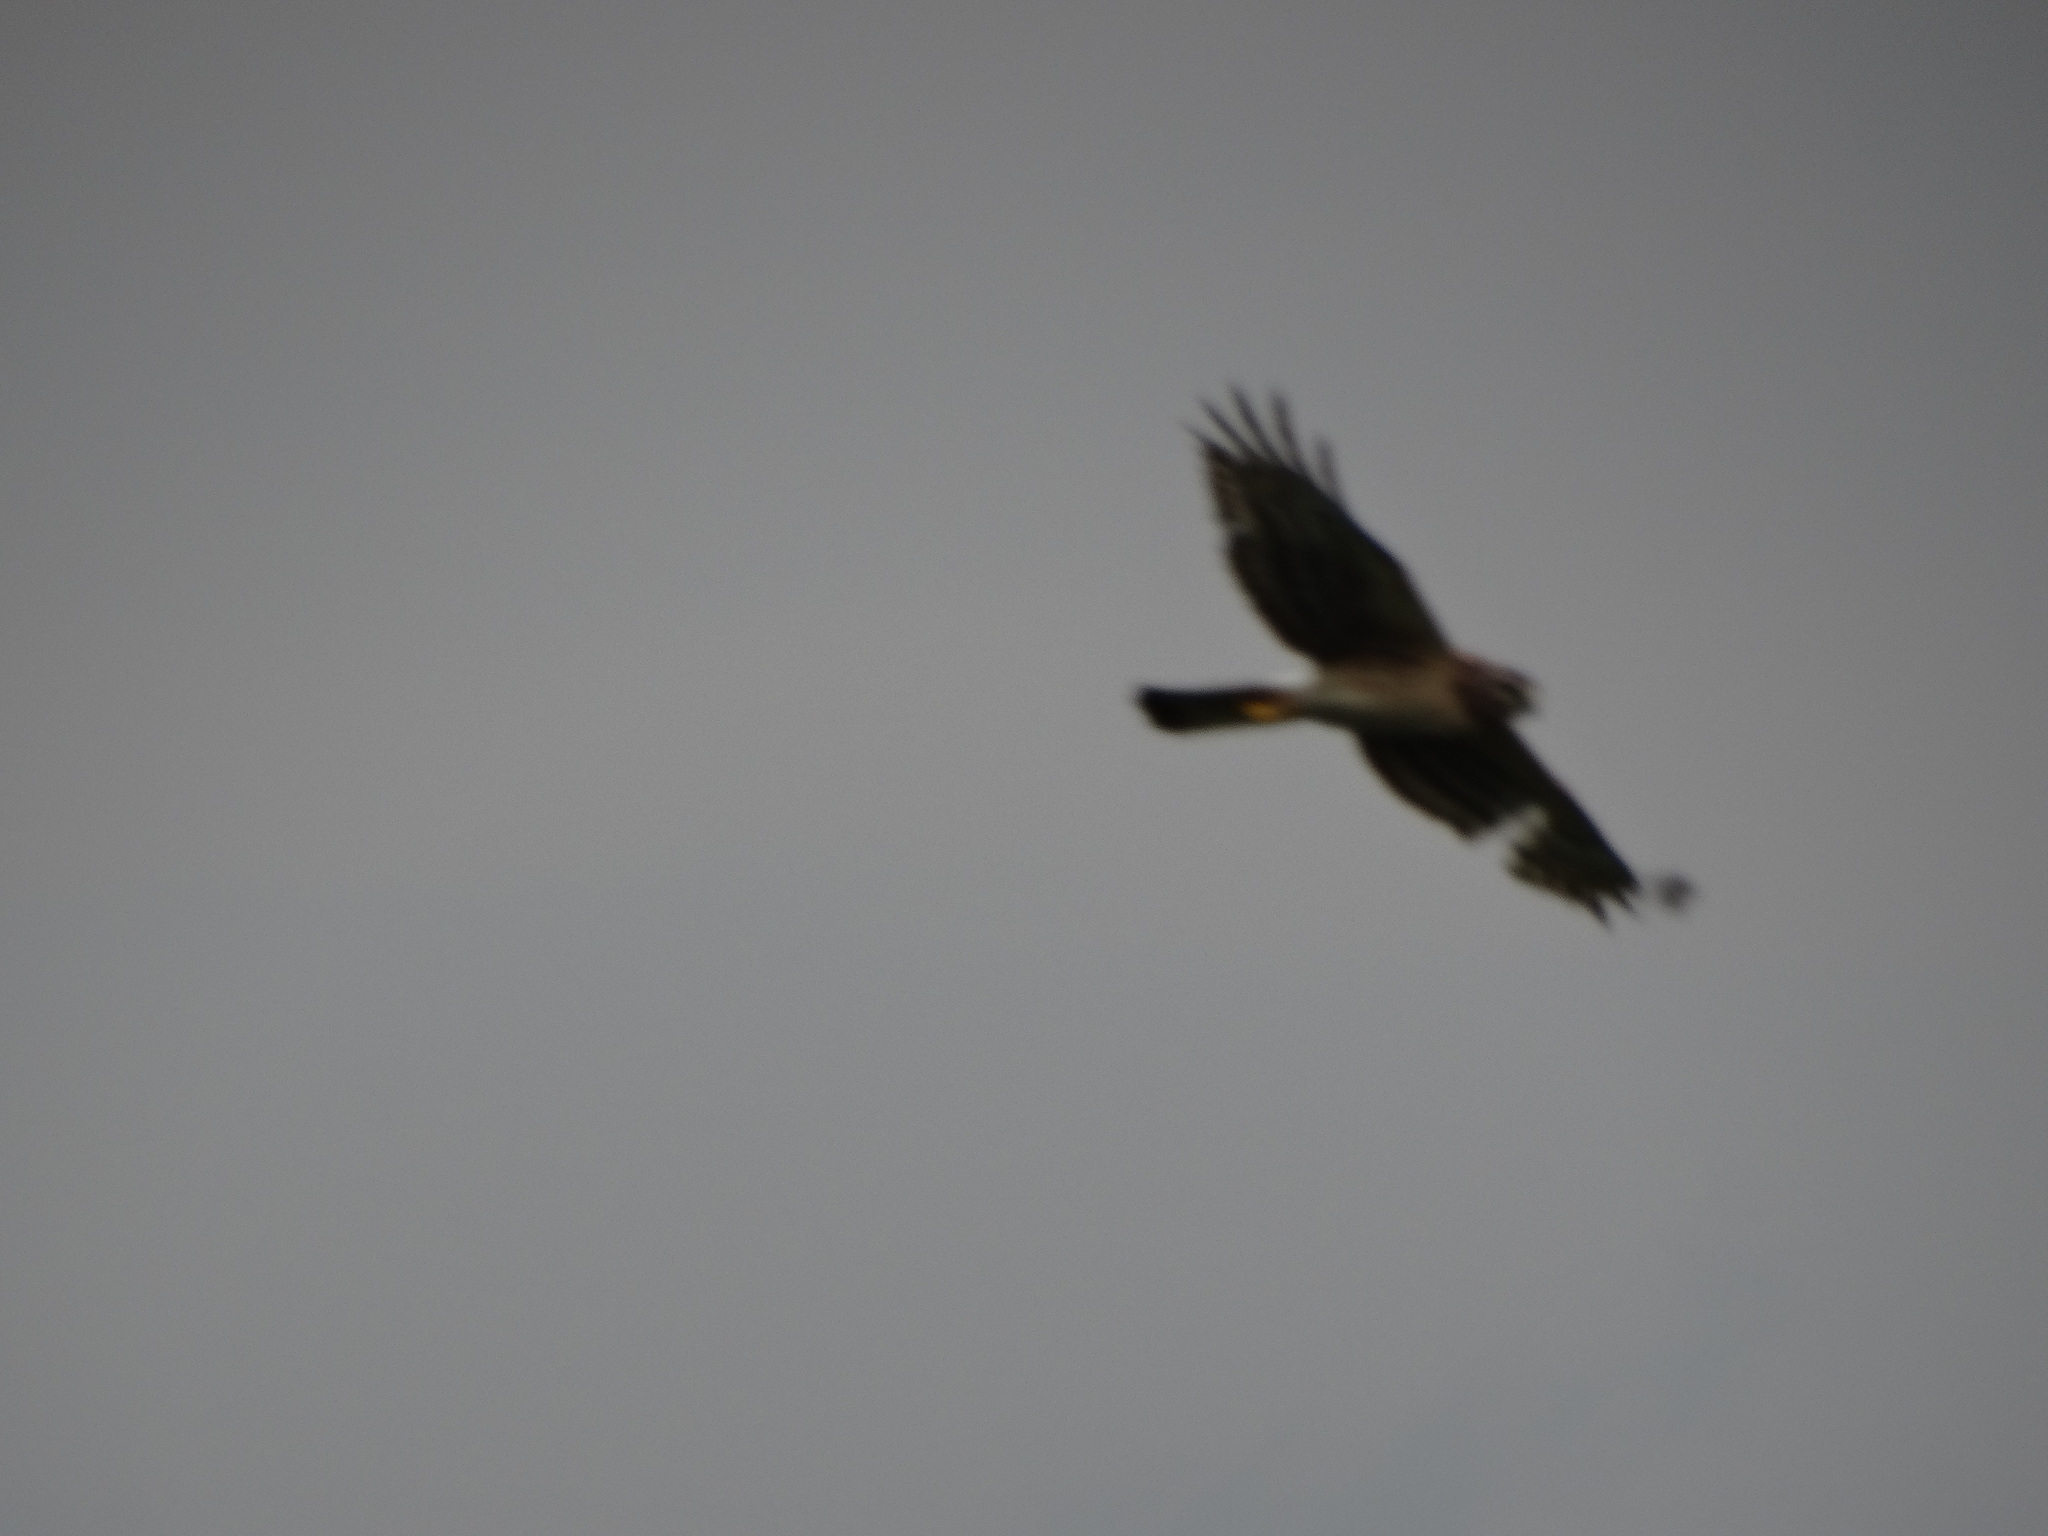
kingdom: Animalia
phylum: Chordata
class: Aves
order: Accipitriformes
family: Accipitridae
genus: Circus
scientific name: Circus cyaneus
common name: Hen harrier
